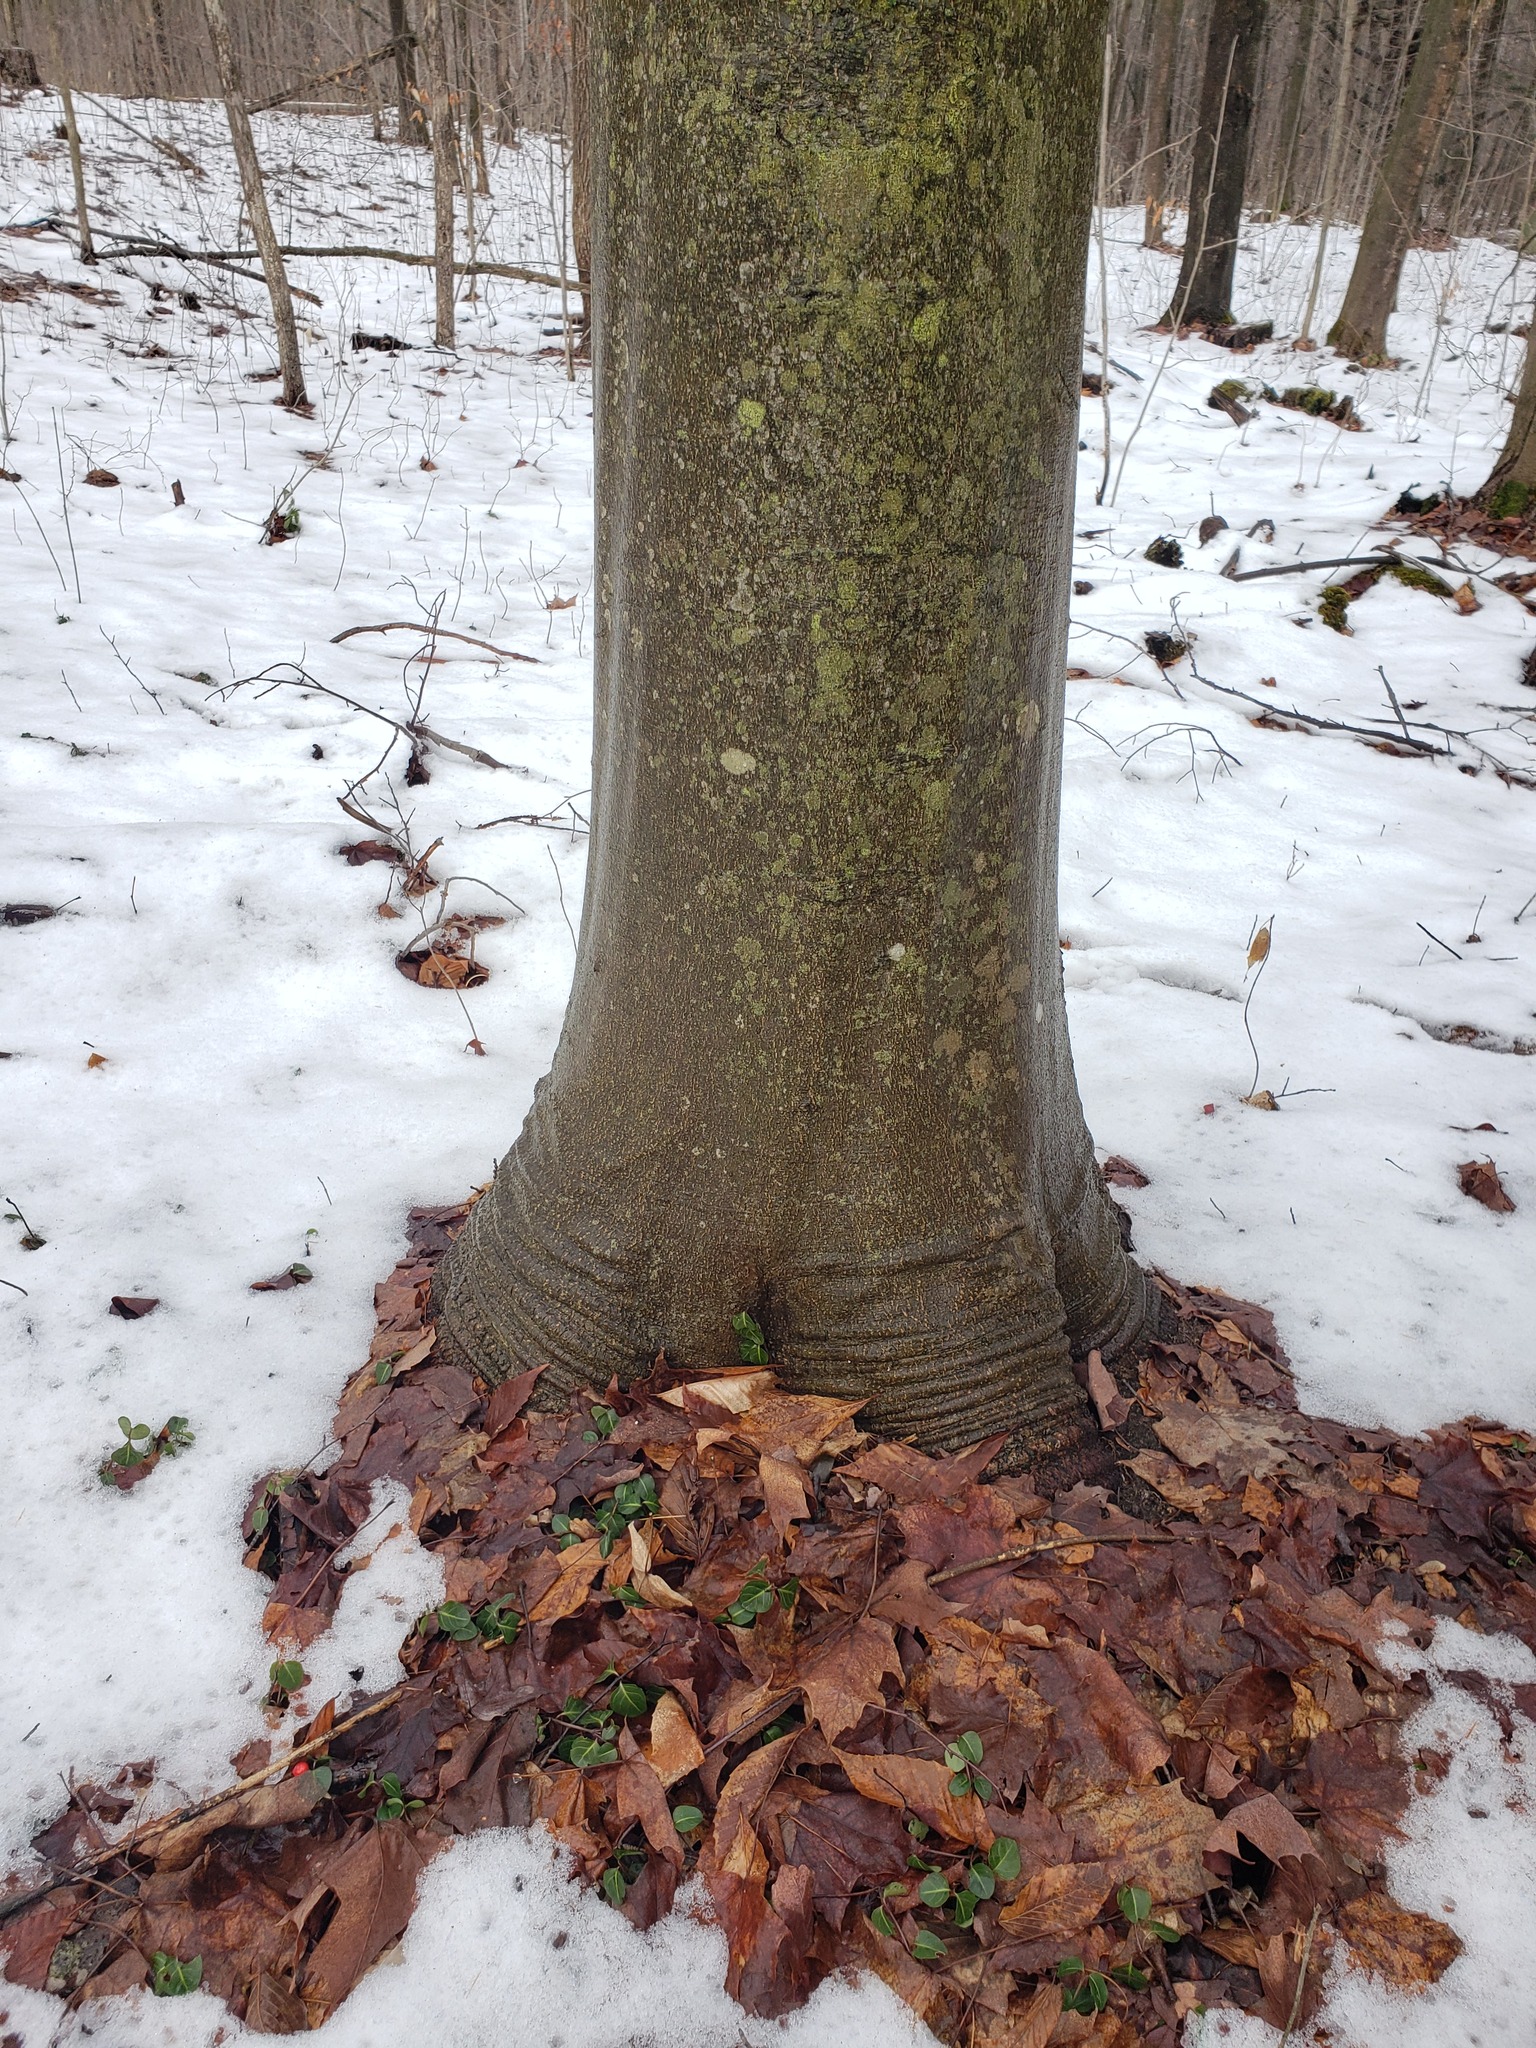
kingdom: Plantae
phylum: Tracheophyta
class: Magnoliopsida
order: Fagales
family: Fagaceae
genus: Fagus
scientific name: Fagus grandifolia
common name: American beech
